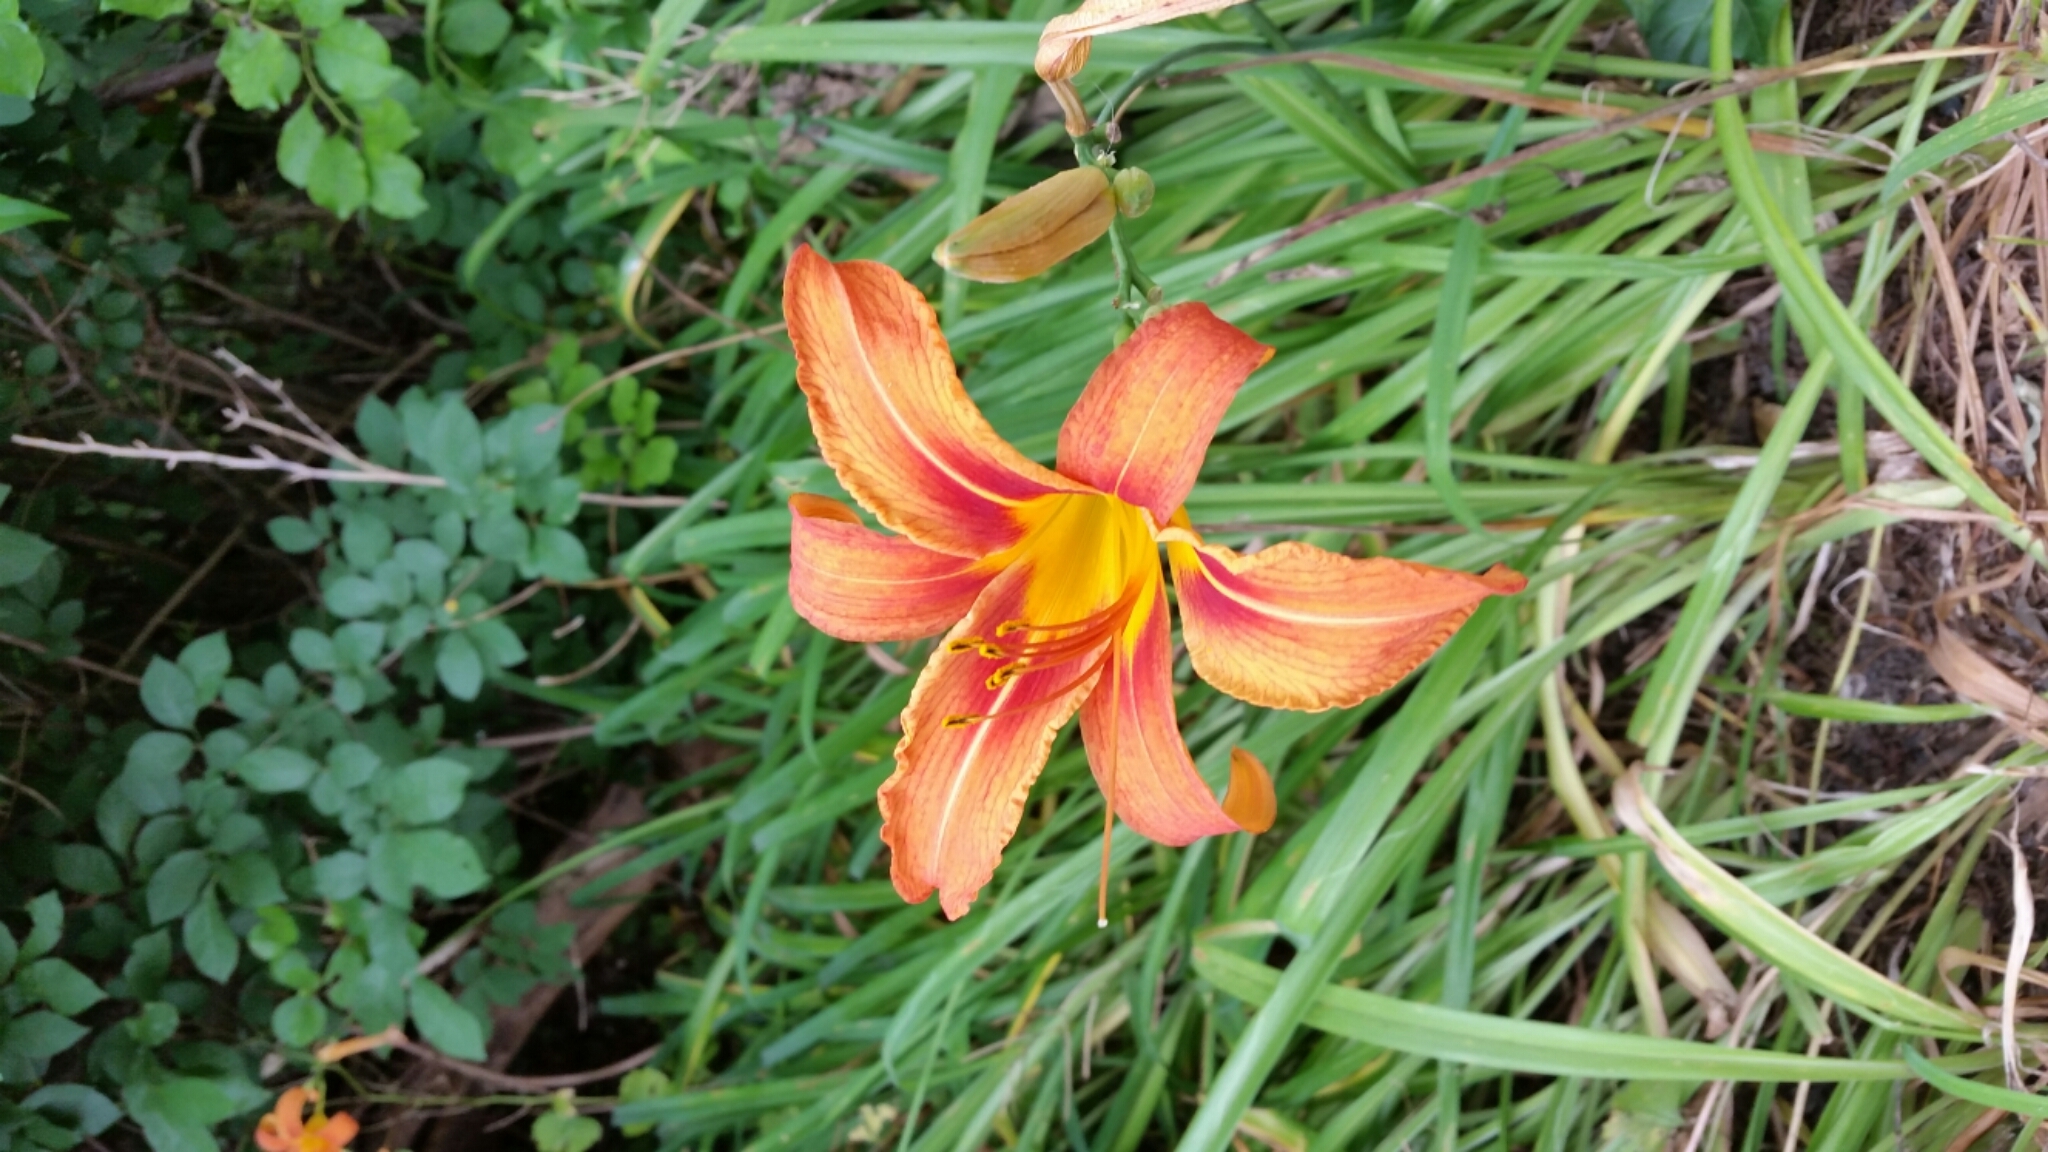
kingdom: Plantae
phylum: Tracheophyta
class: Liliopsida
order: Asparagales
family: Asphodelaceae
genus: Hemerocallis
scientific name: Hemerocallis fulva
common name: Orange day-lily
